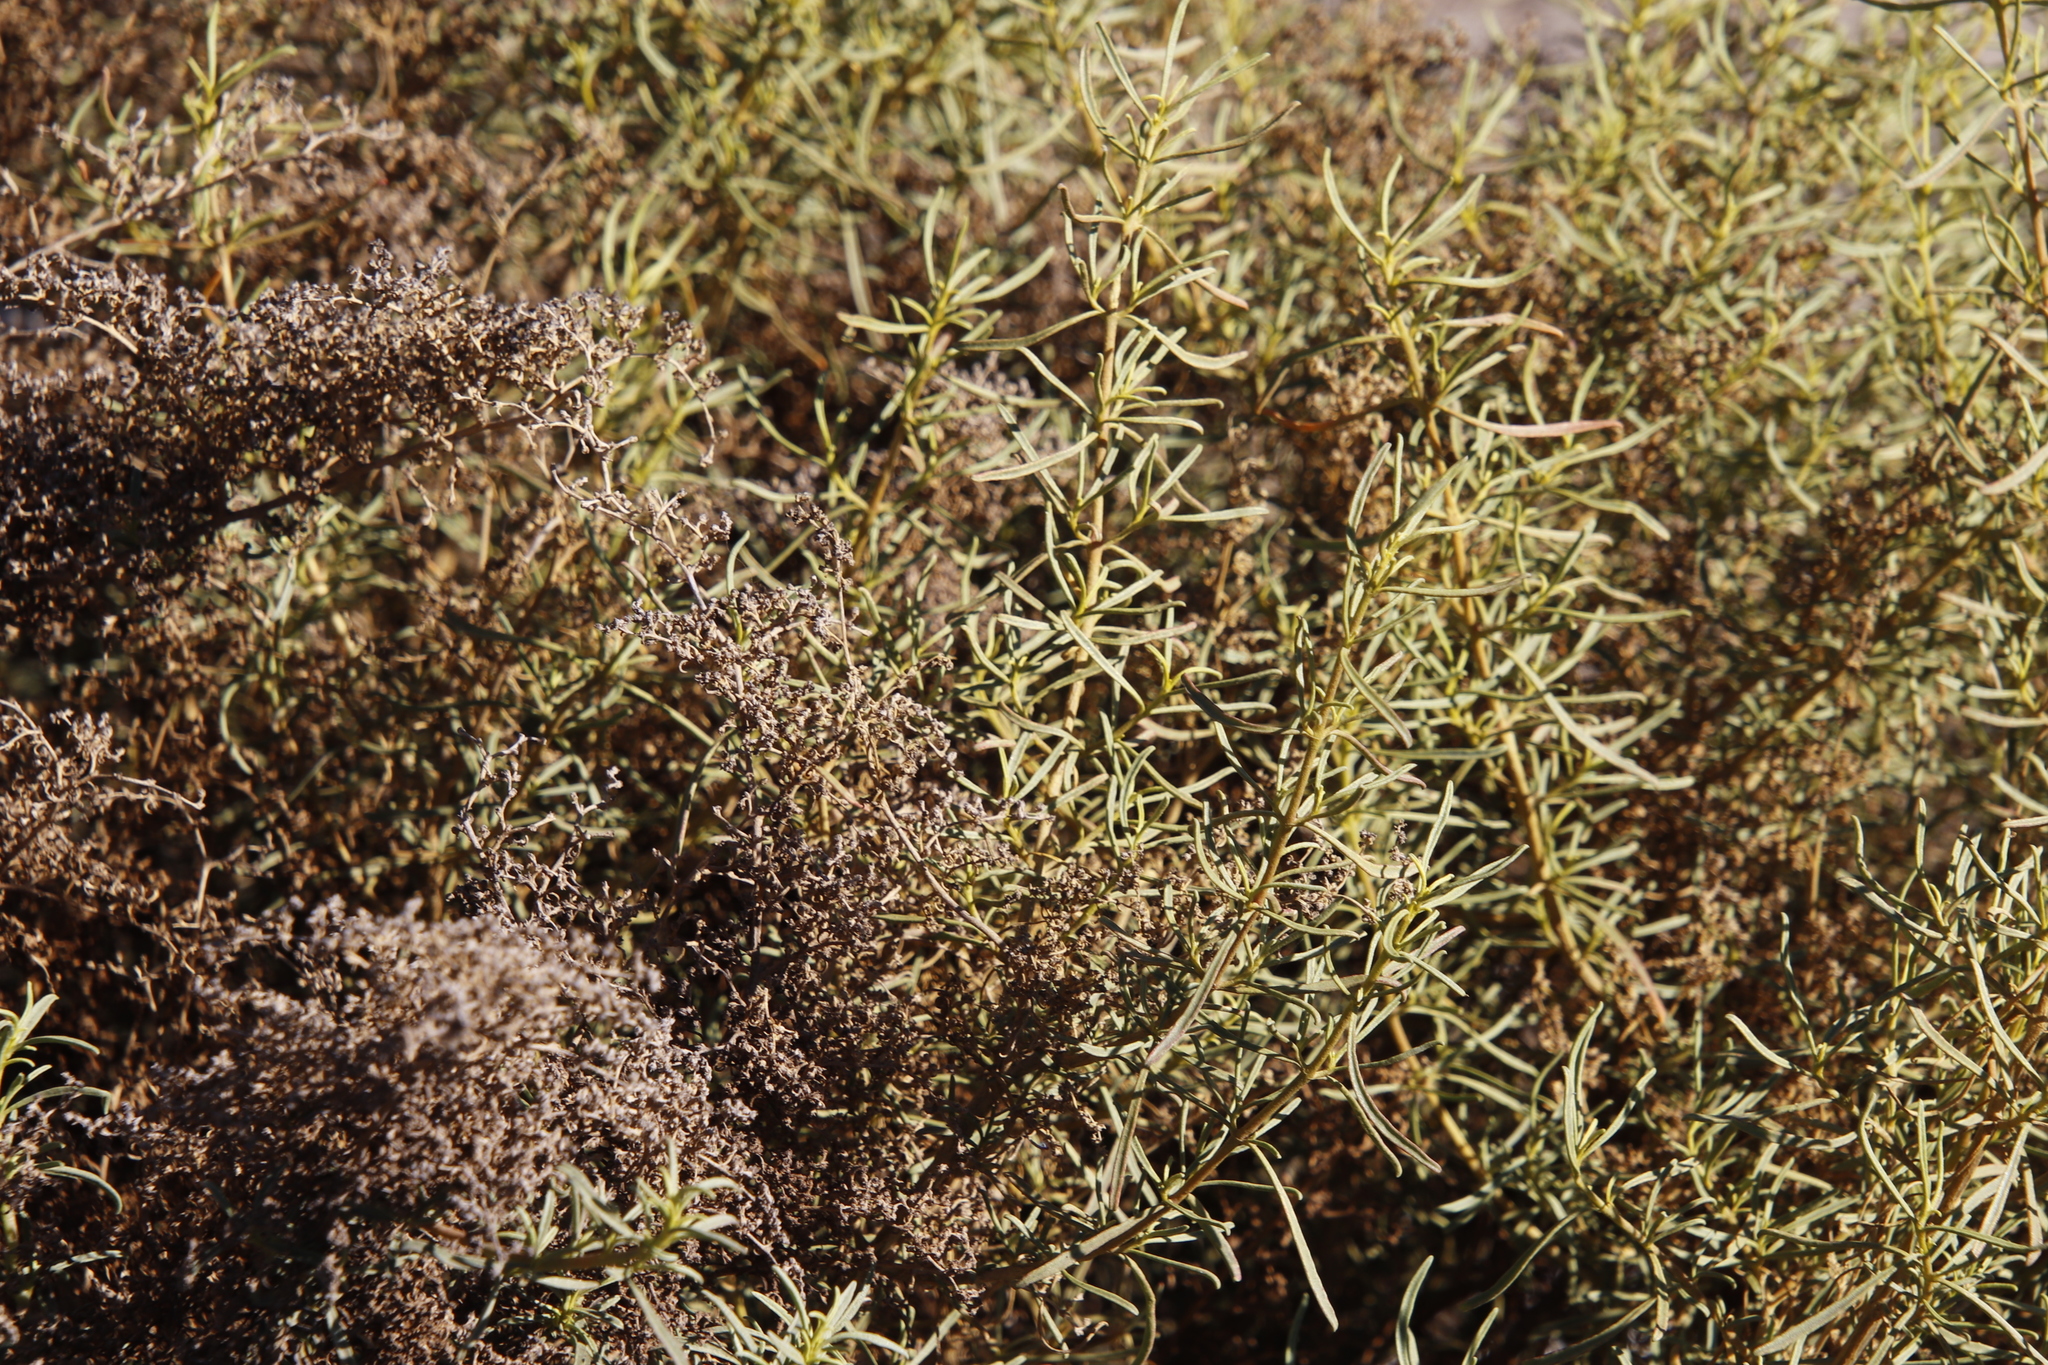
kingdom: Plantae
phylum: Tracheophyta
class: Magnoliopsida
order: Caryophyllales
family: Aizoaceae
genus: Aizoon
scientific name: Aizoon africanum
